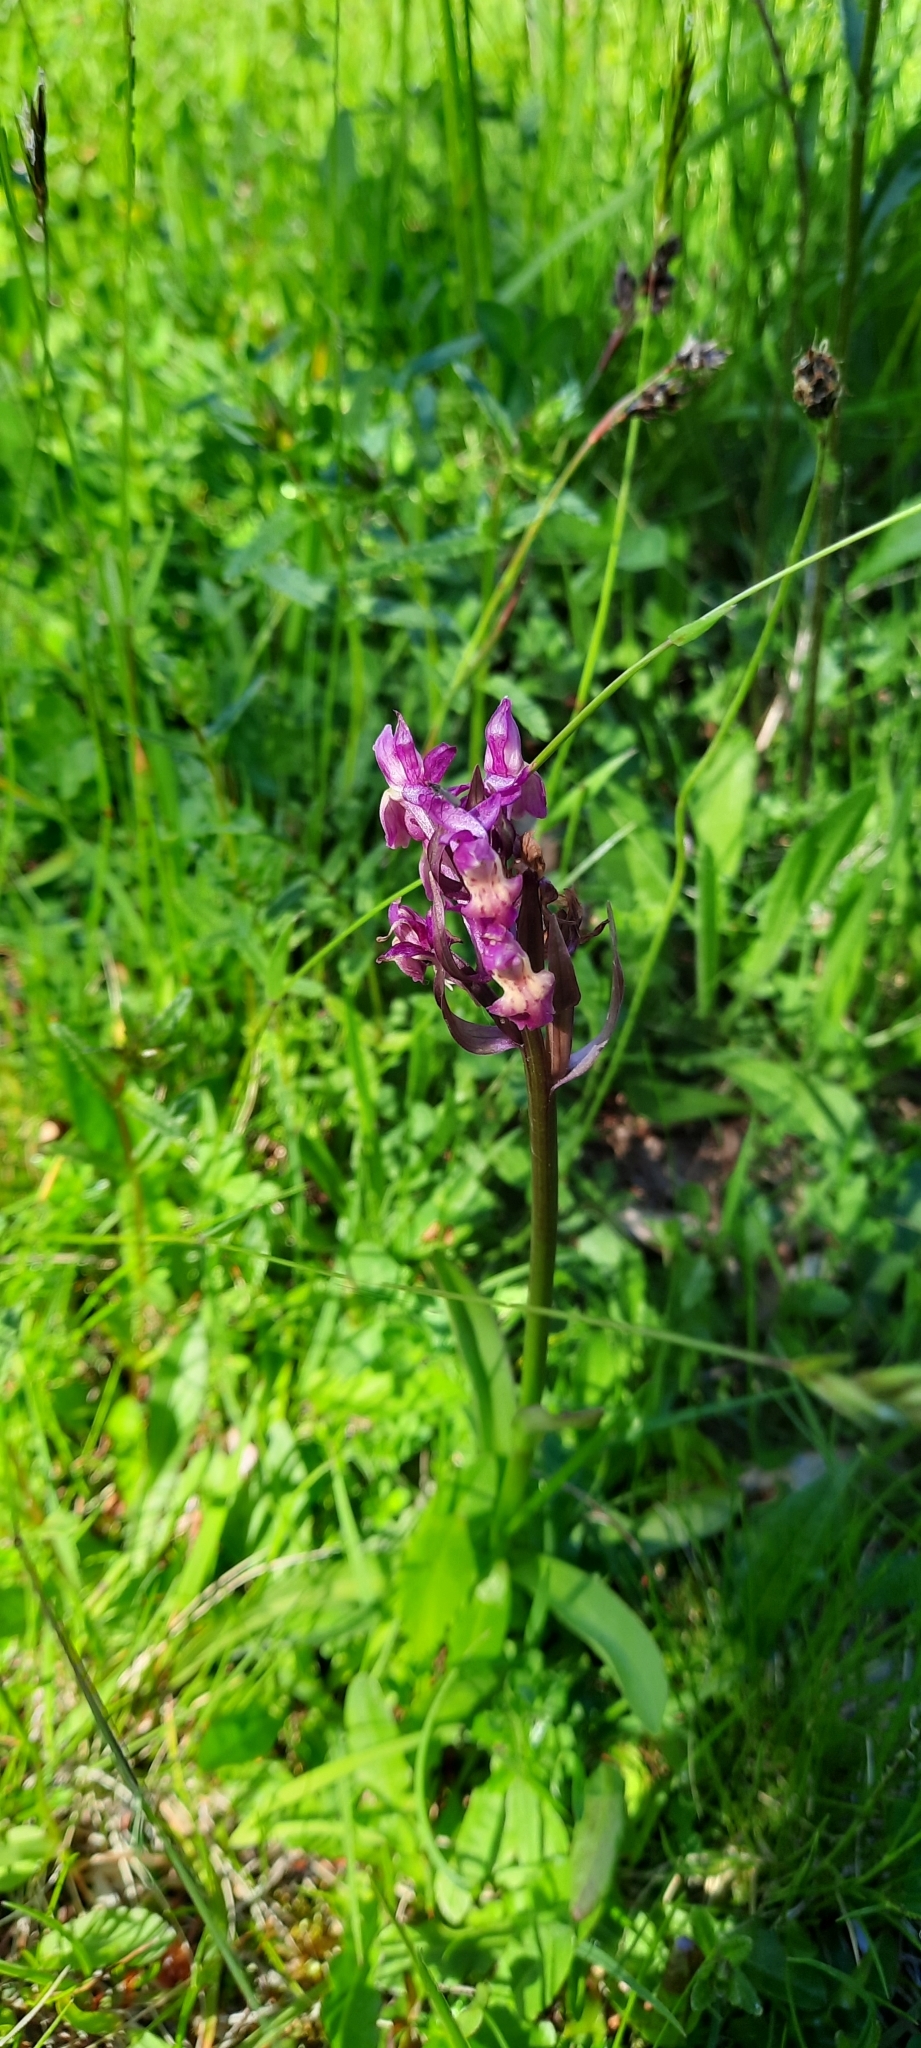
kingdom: Plantae
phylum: Tracheophyta
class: Liliopsida
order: Asparagales
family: Orchidaceae
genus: Dactylorhiza
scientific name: Dactylorhiza sambucina
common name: Elder-flowered orchid
